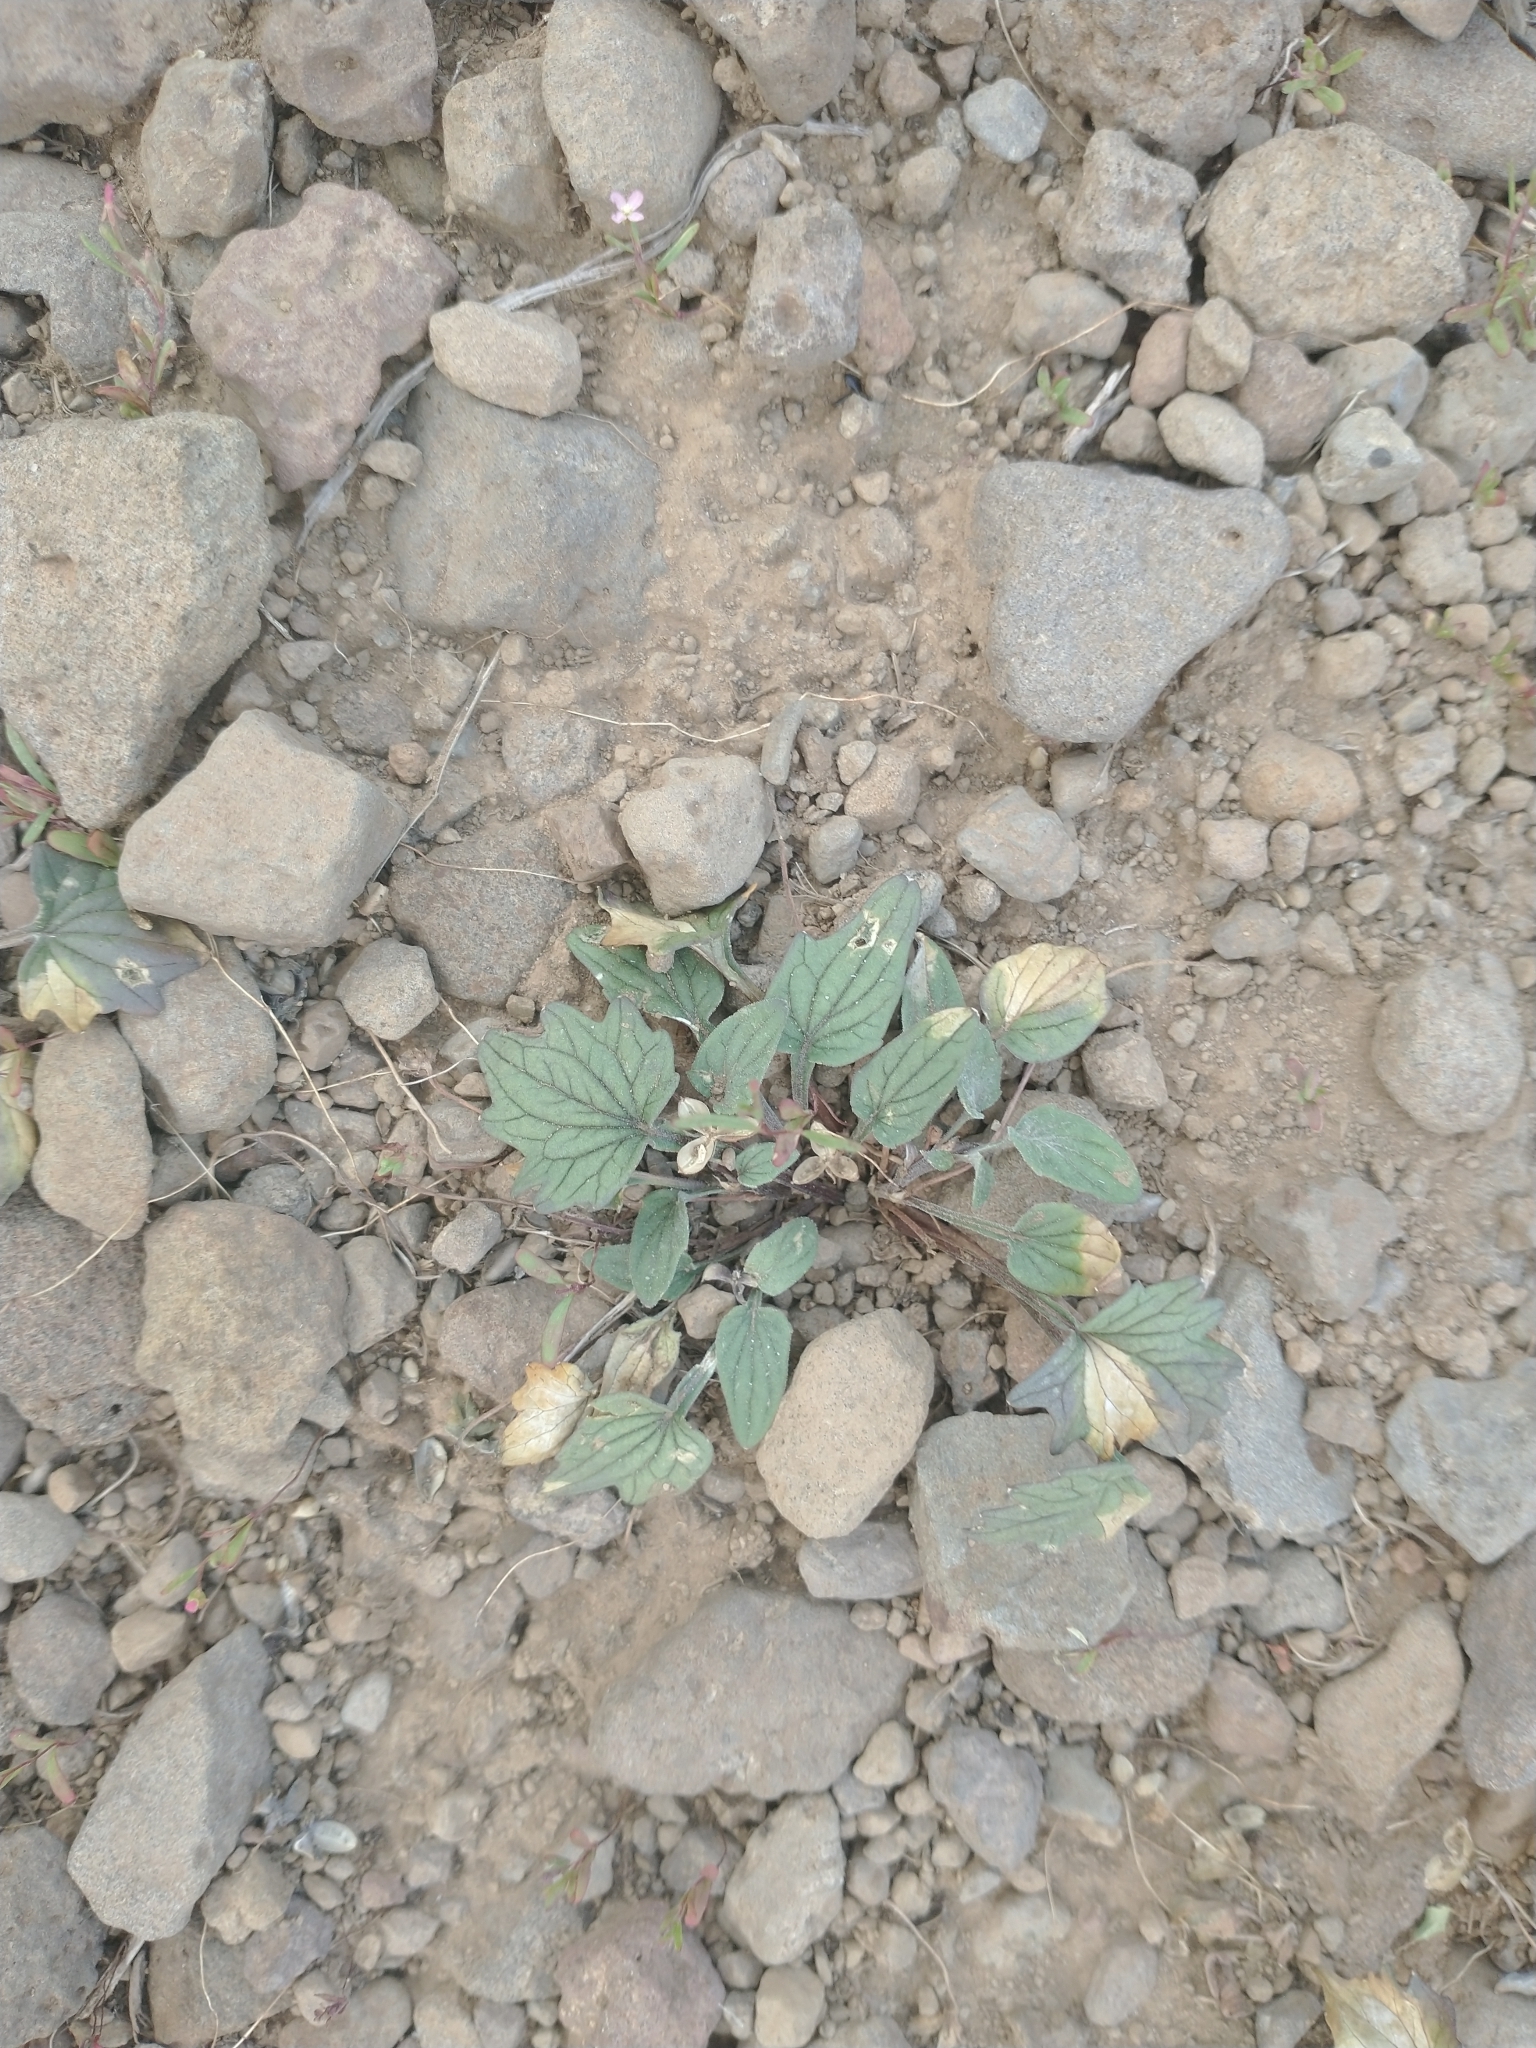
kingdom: Plantae
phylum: Tracheophyta
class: Magnoliopsida
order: Malpighiales
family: Violaceae
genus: Viola
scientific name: Viola purpurea
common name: Pine violet
